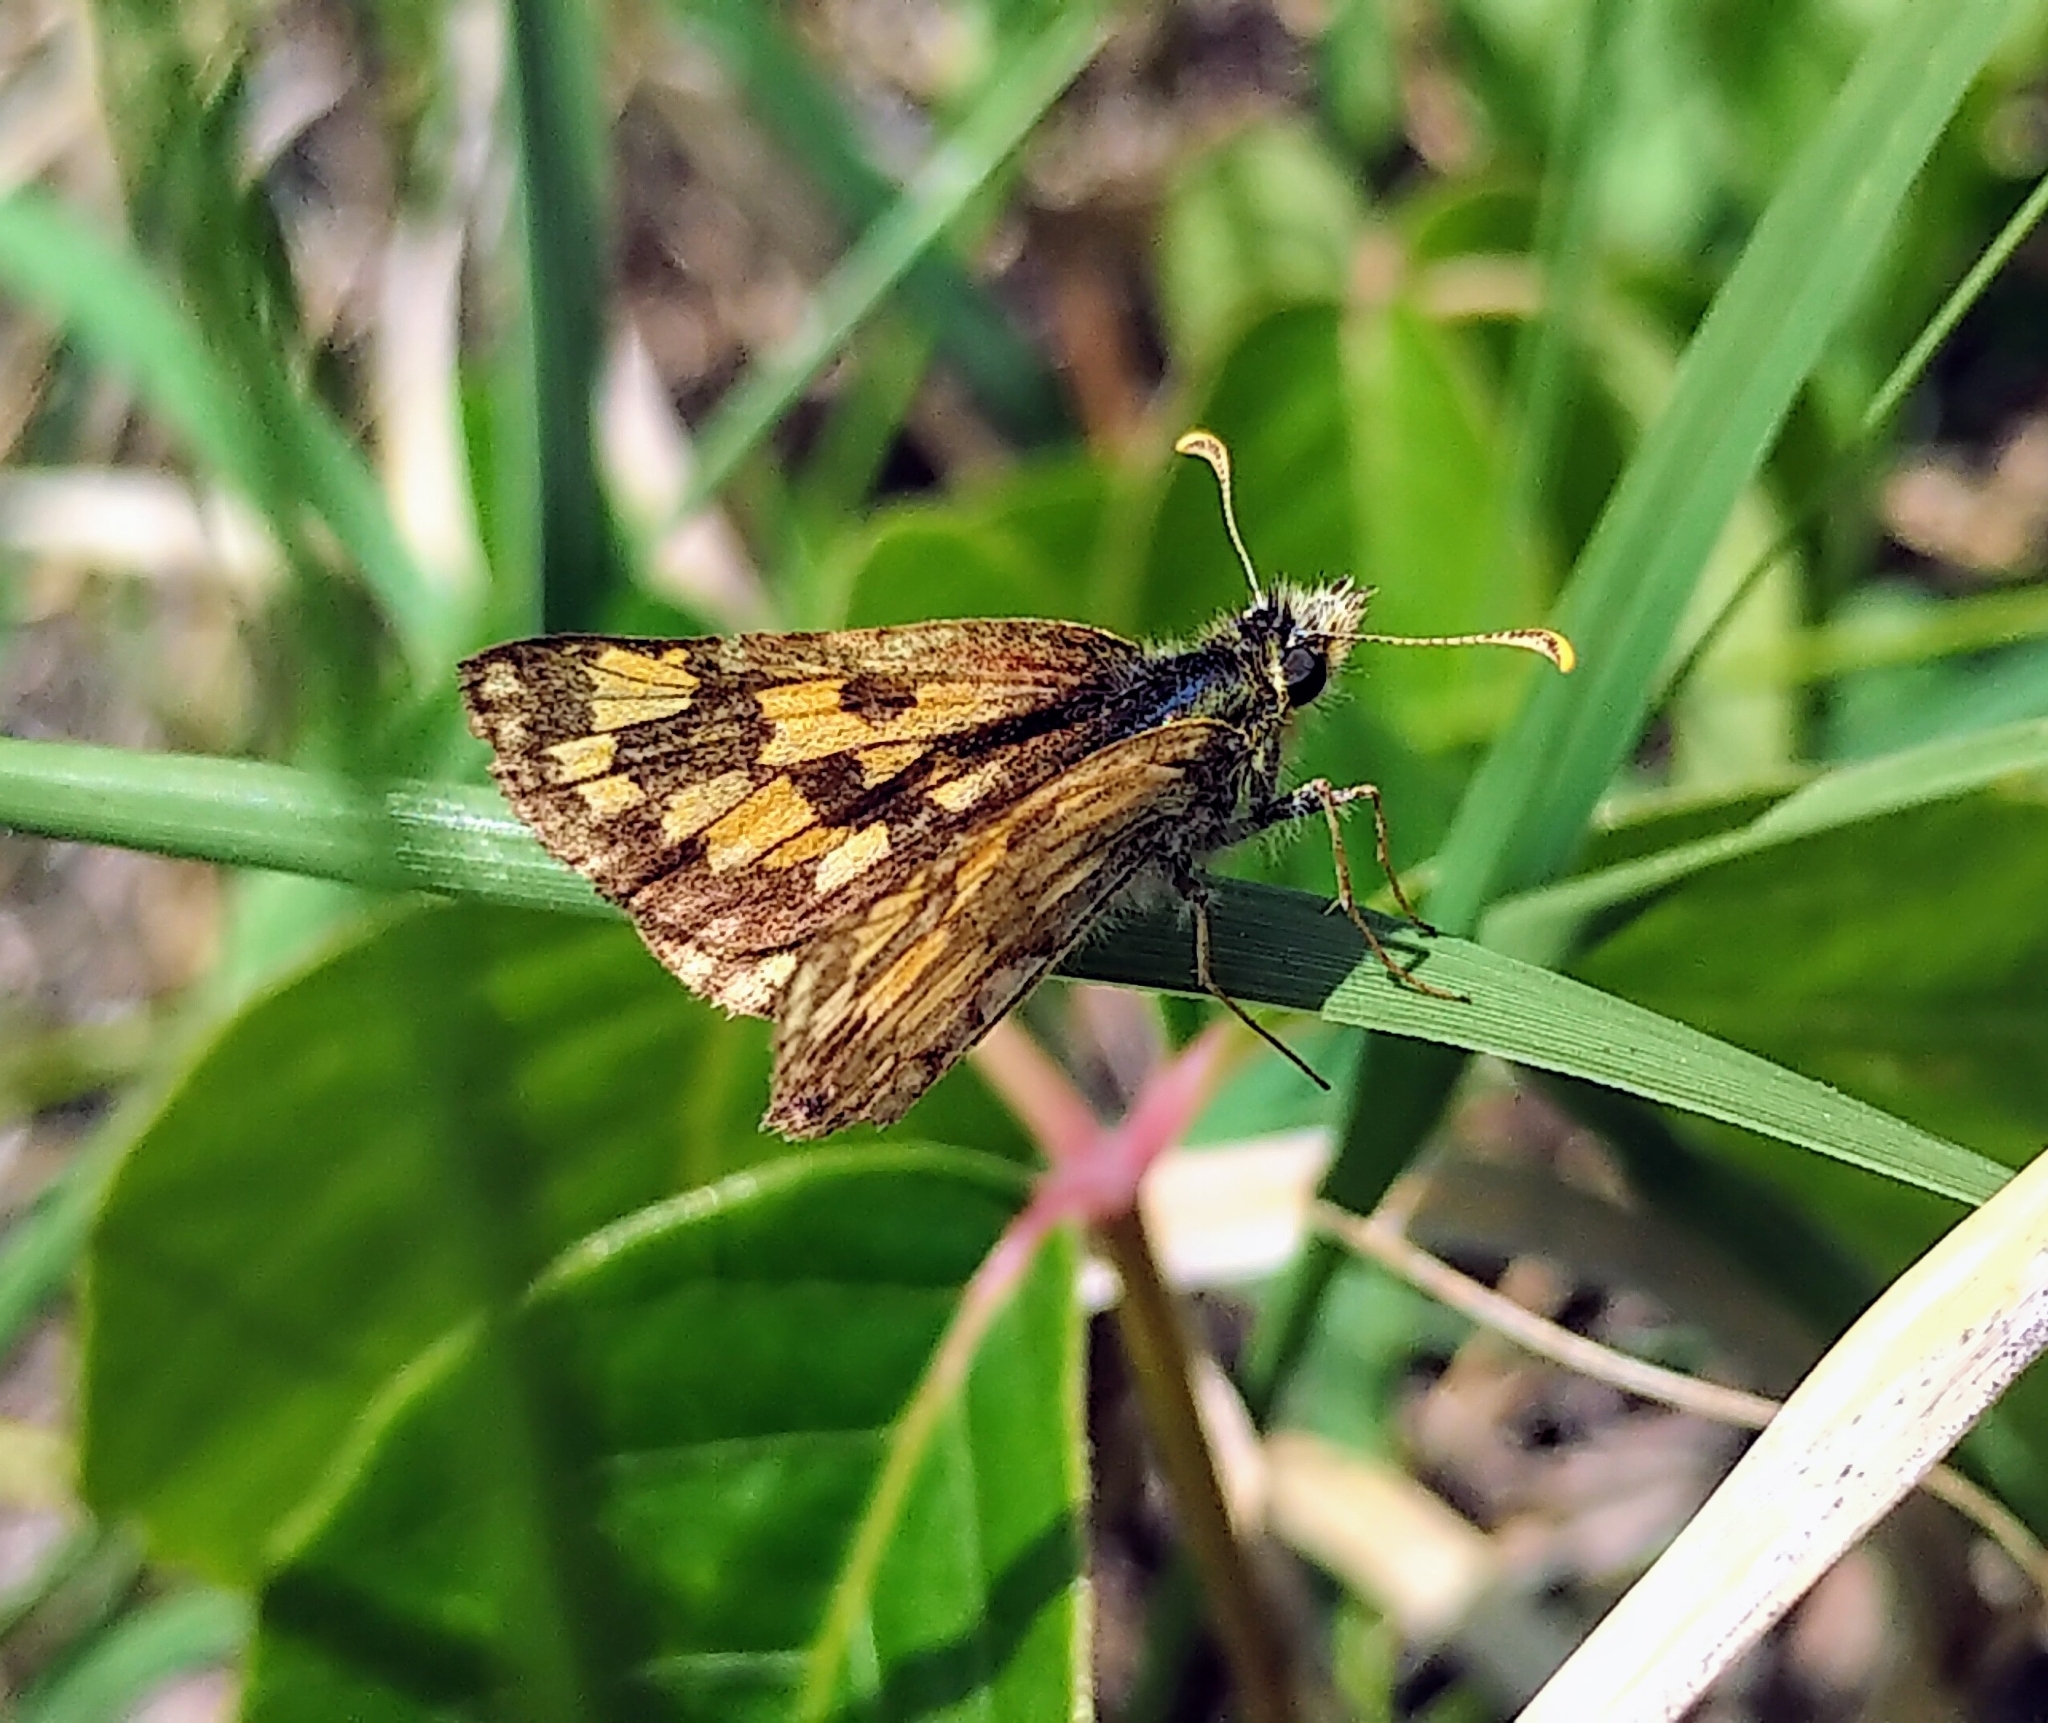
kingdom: Animalia
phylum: Arthropoda
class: Insecta
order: Lepidoptera
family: Hesperiidae
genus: Carterocephalus
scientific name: Carterocephalus mandan
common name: Arctic skipperling
